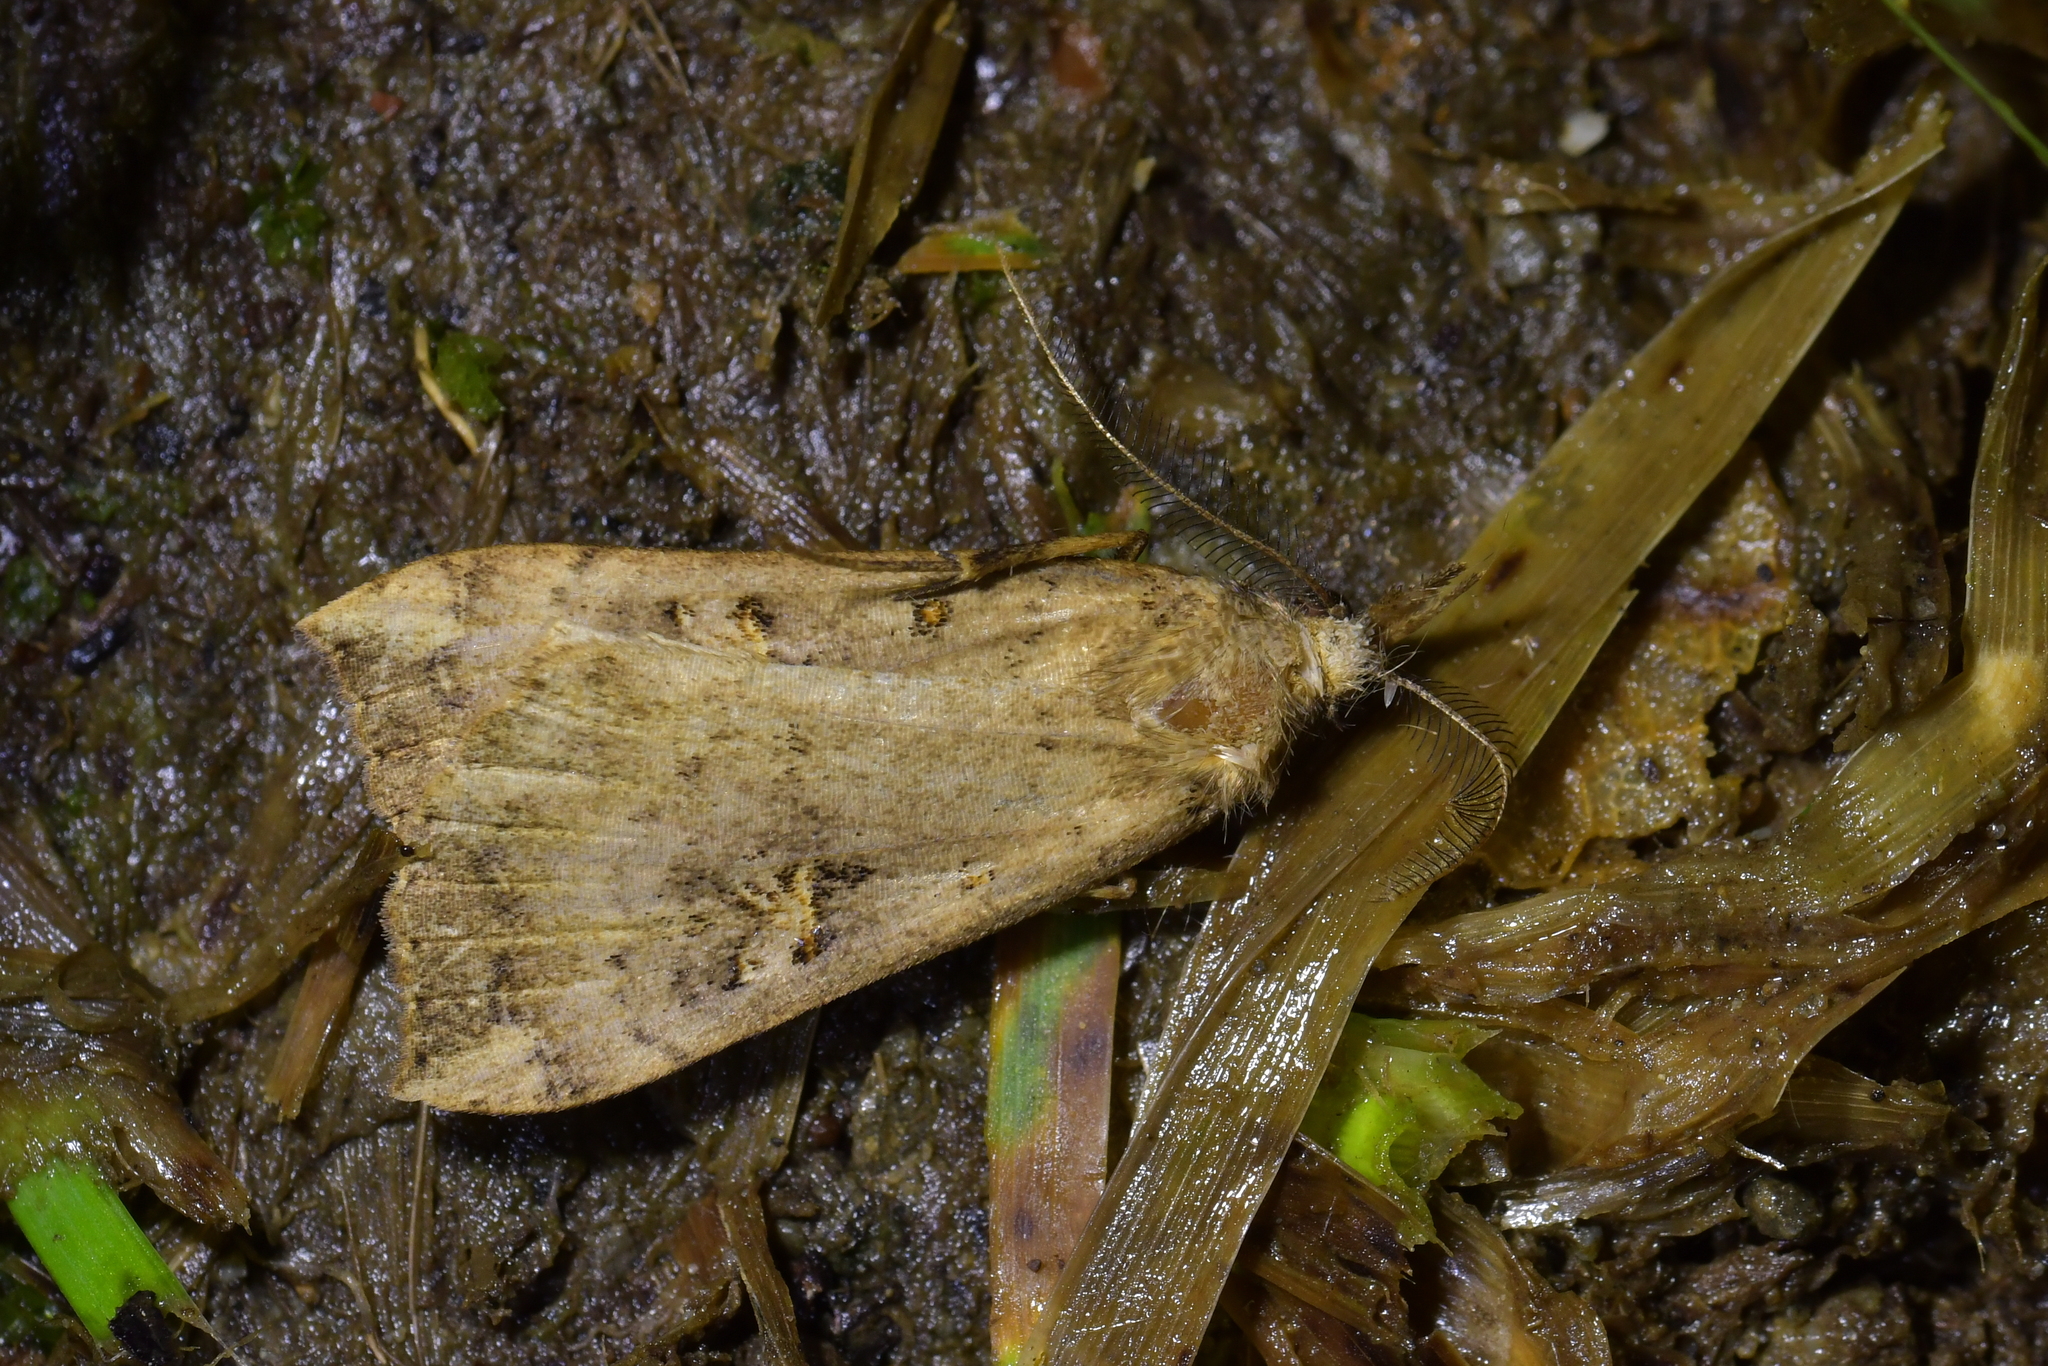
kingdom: Animalia
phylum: Arthropoda
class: Insecta
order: Lepidoptera
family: Erebidae
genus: Rhapsa
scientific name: Rhapsa scotosialis
